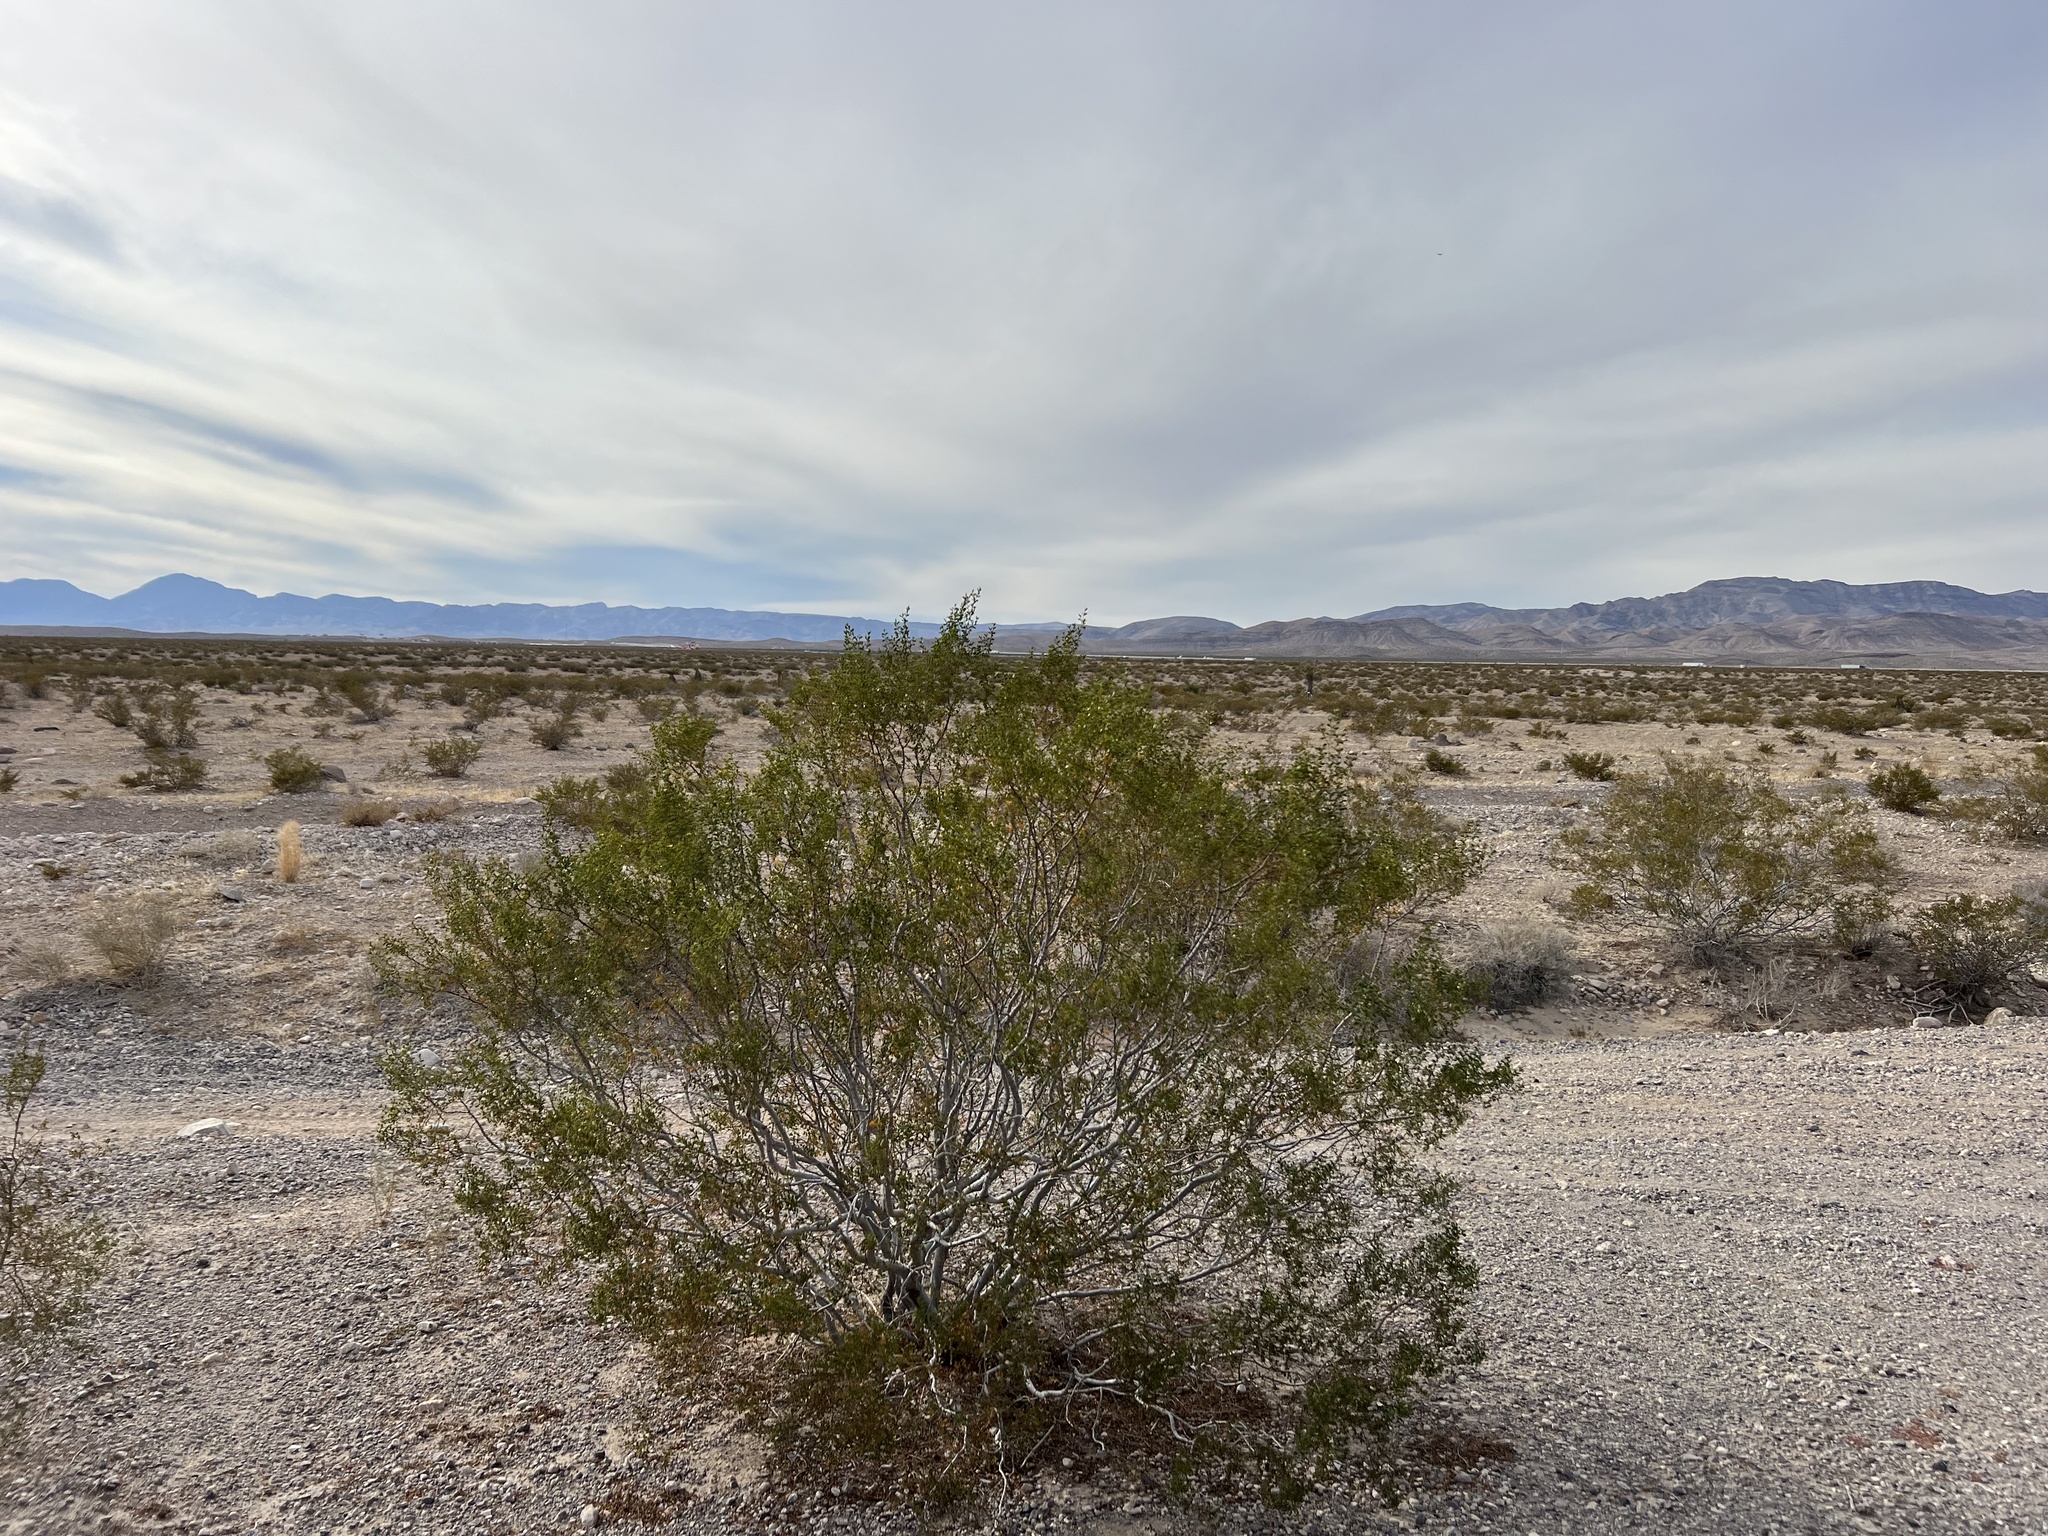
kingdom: Plantae
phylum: Tracheophyta
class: Magnoliopsida
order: Zygophyllales
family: Zygophyllaceae
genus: Larrea
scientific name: Larrea tridentata
